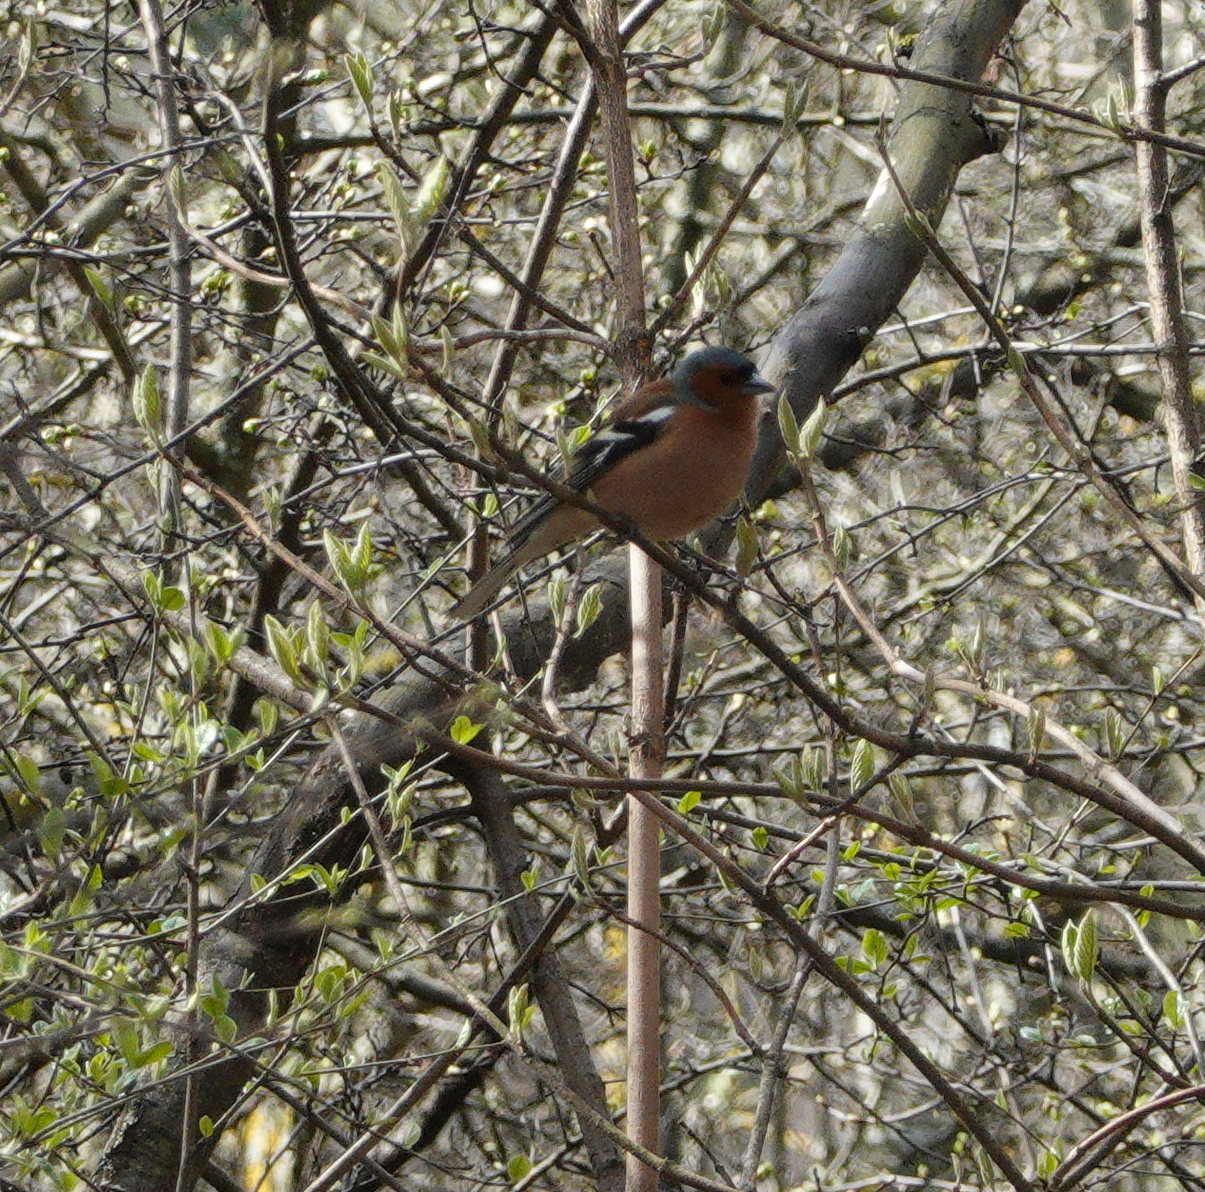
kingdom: Animalia
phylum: Chordata
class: Aves
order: Passeriformes
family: Fringillidae
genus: Fringilla
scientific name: Fringilla coelebs
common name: Common chaffinch
